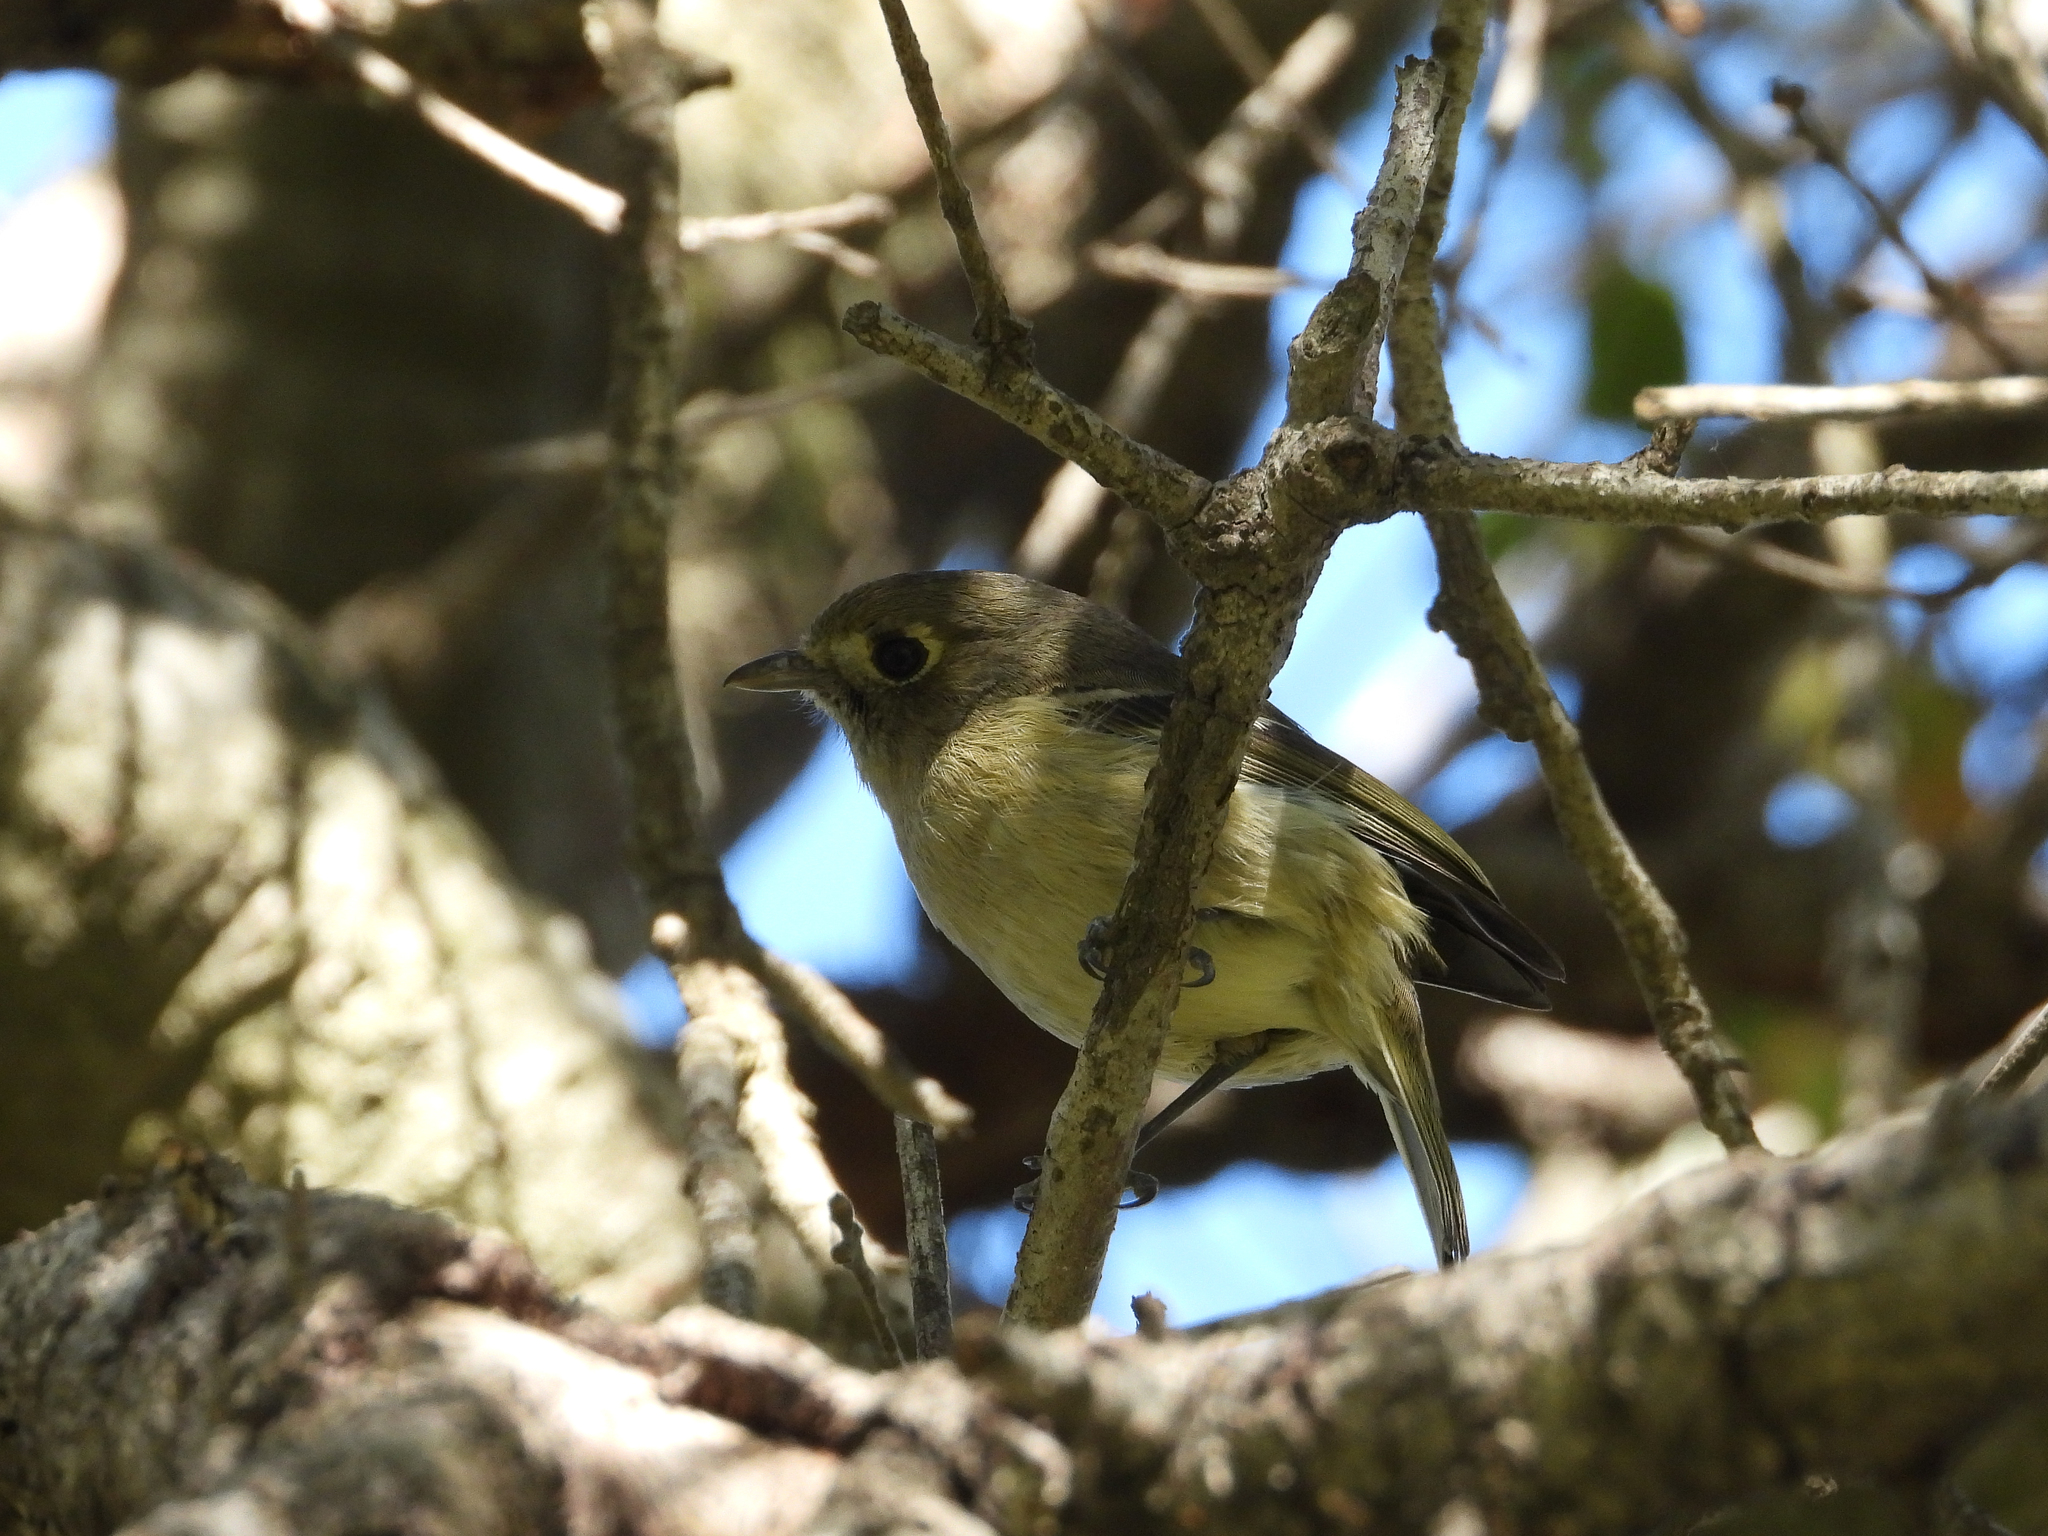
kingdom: Animalia
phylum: Chordata
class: Aves
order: Passeriformes
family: Vireonidae
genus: Vireo
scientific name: Vireo huttoni
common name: Hutton's vireo
